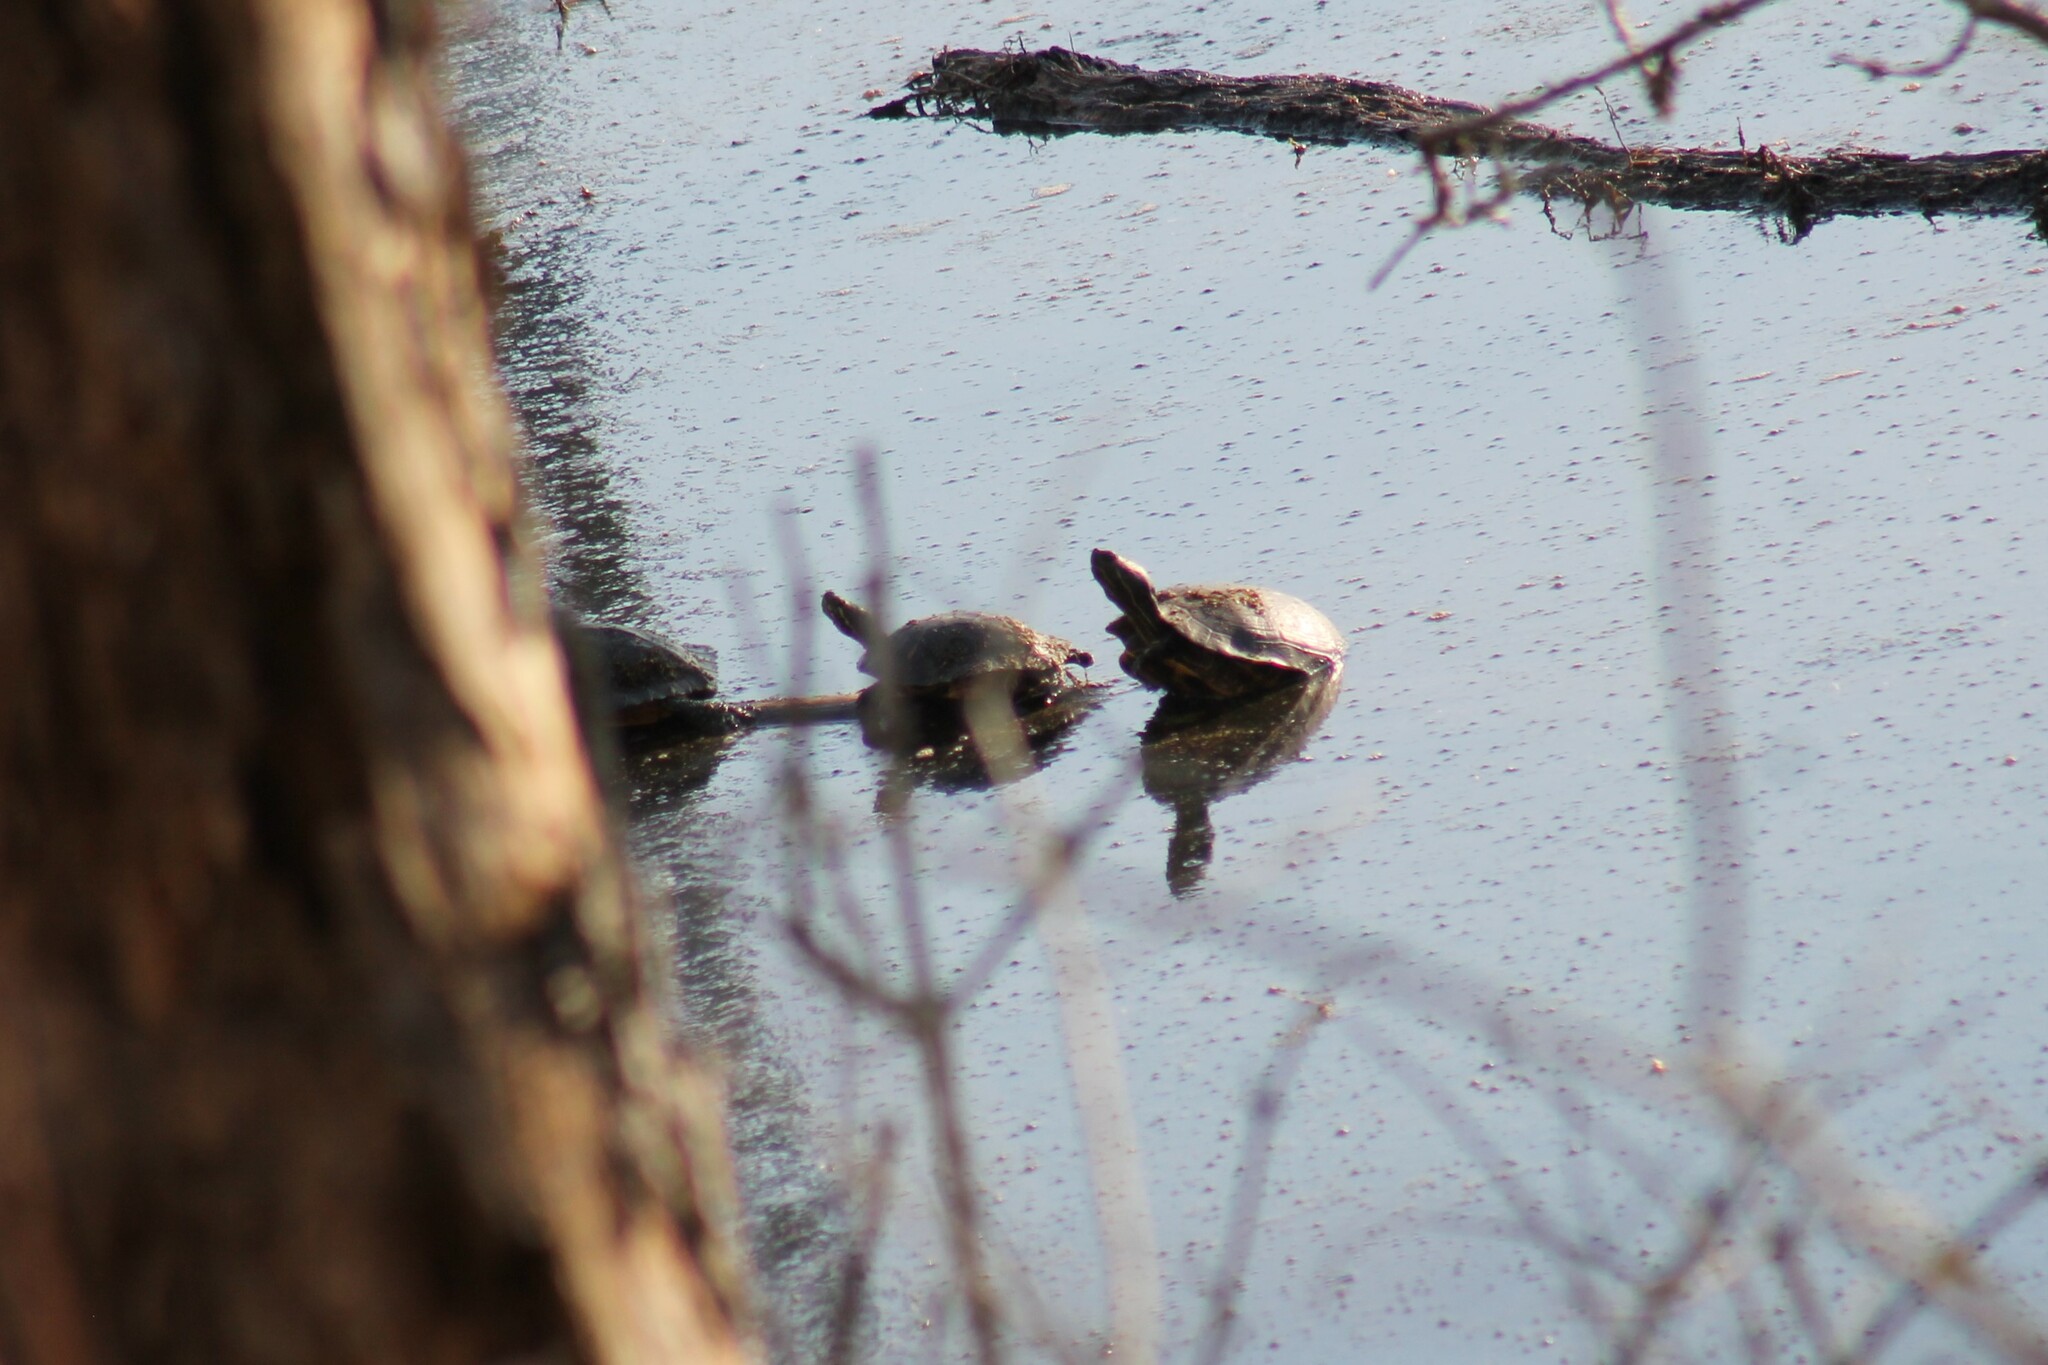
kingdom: Animalia
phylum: Chordata
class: Testudines
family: Emydidae
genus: Trachemys
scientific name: Trachemys scripta
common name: Slider
